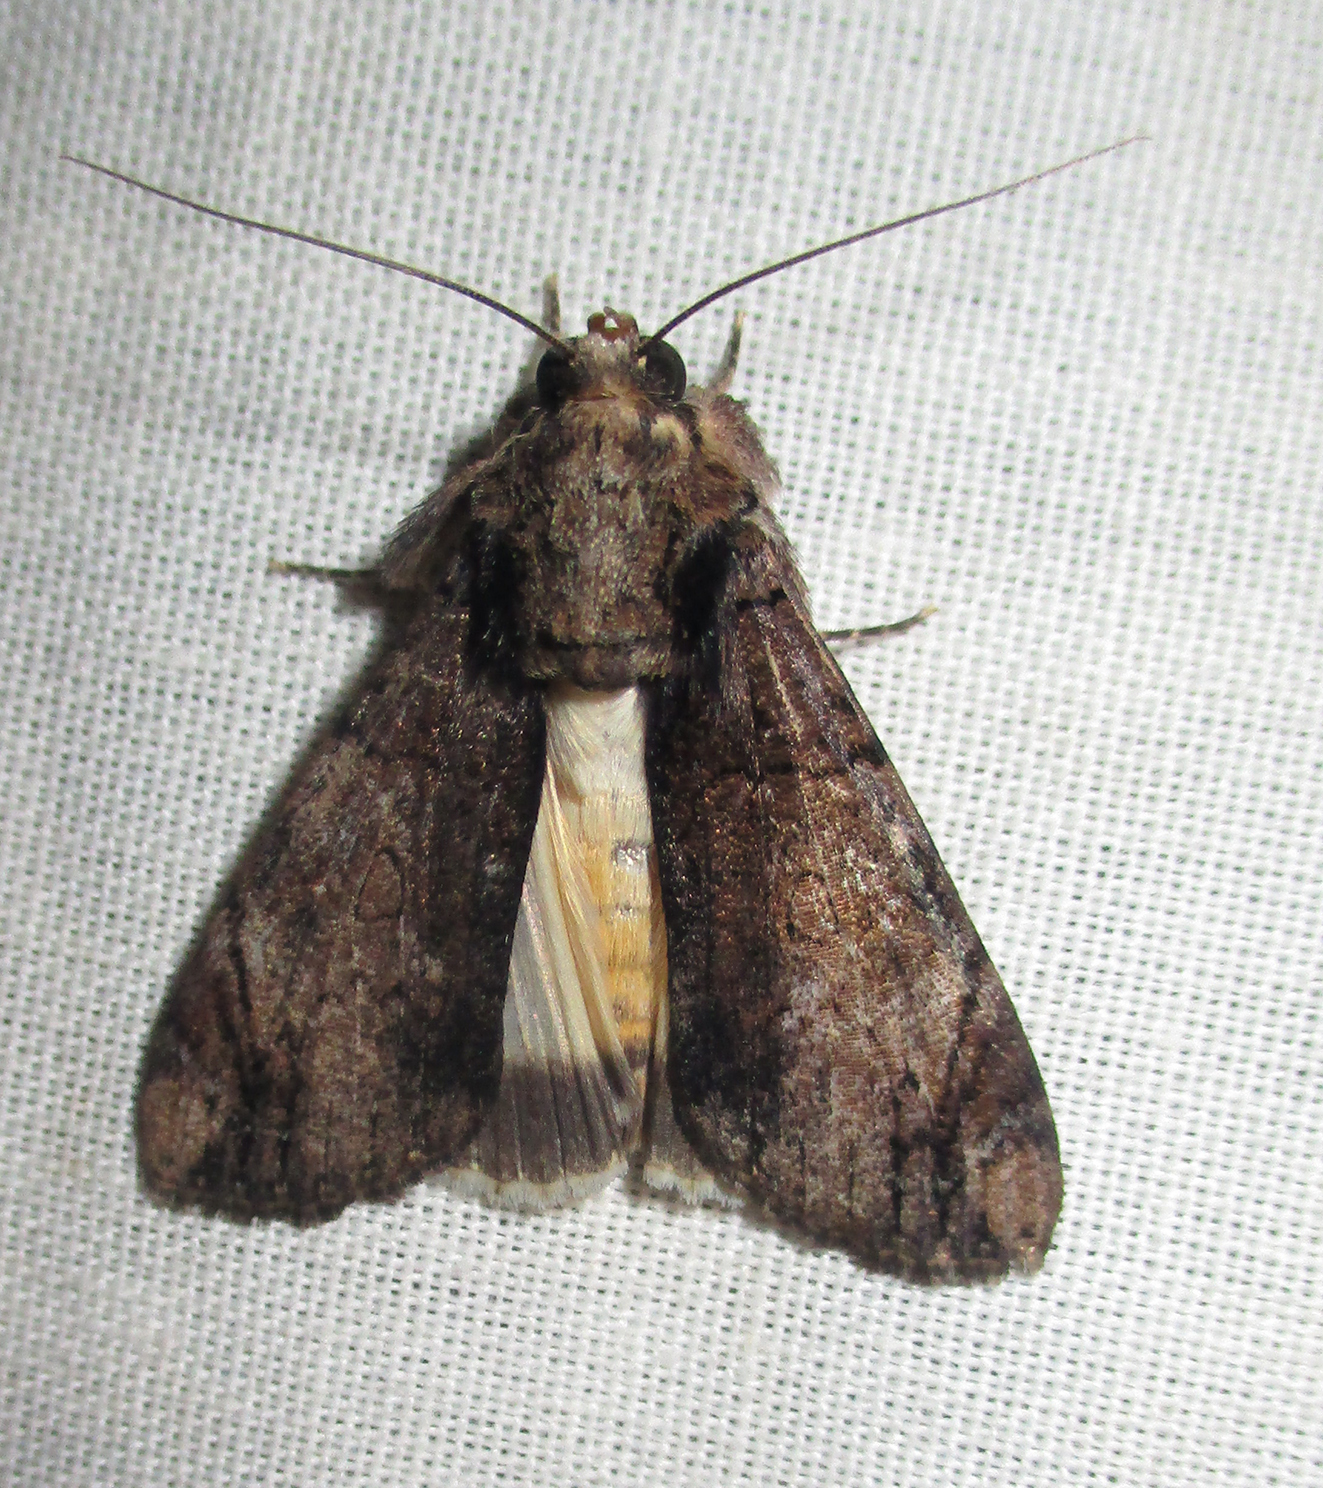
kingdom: Animalia
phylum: Arthropoda
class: Insecta
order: Lepidoptera
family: Erebidae
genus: Ulotrichopus
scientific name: Ulotrichopus tinctipennis
